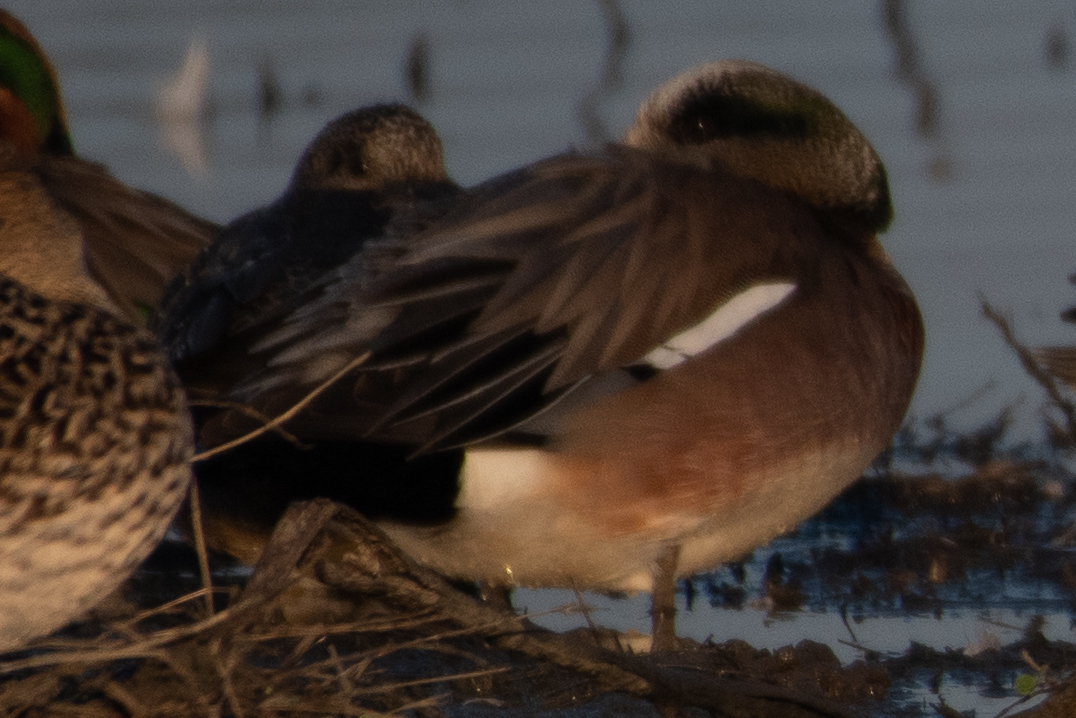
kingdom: Animalia
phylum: Chordata
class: Aves
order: Anseriformes
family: Anatidae
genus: Mareca
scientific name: Mareca americana
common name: American wigeon
